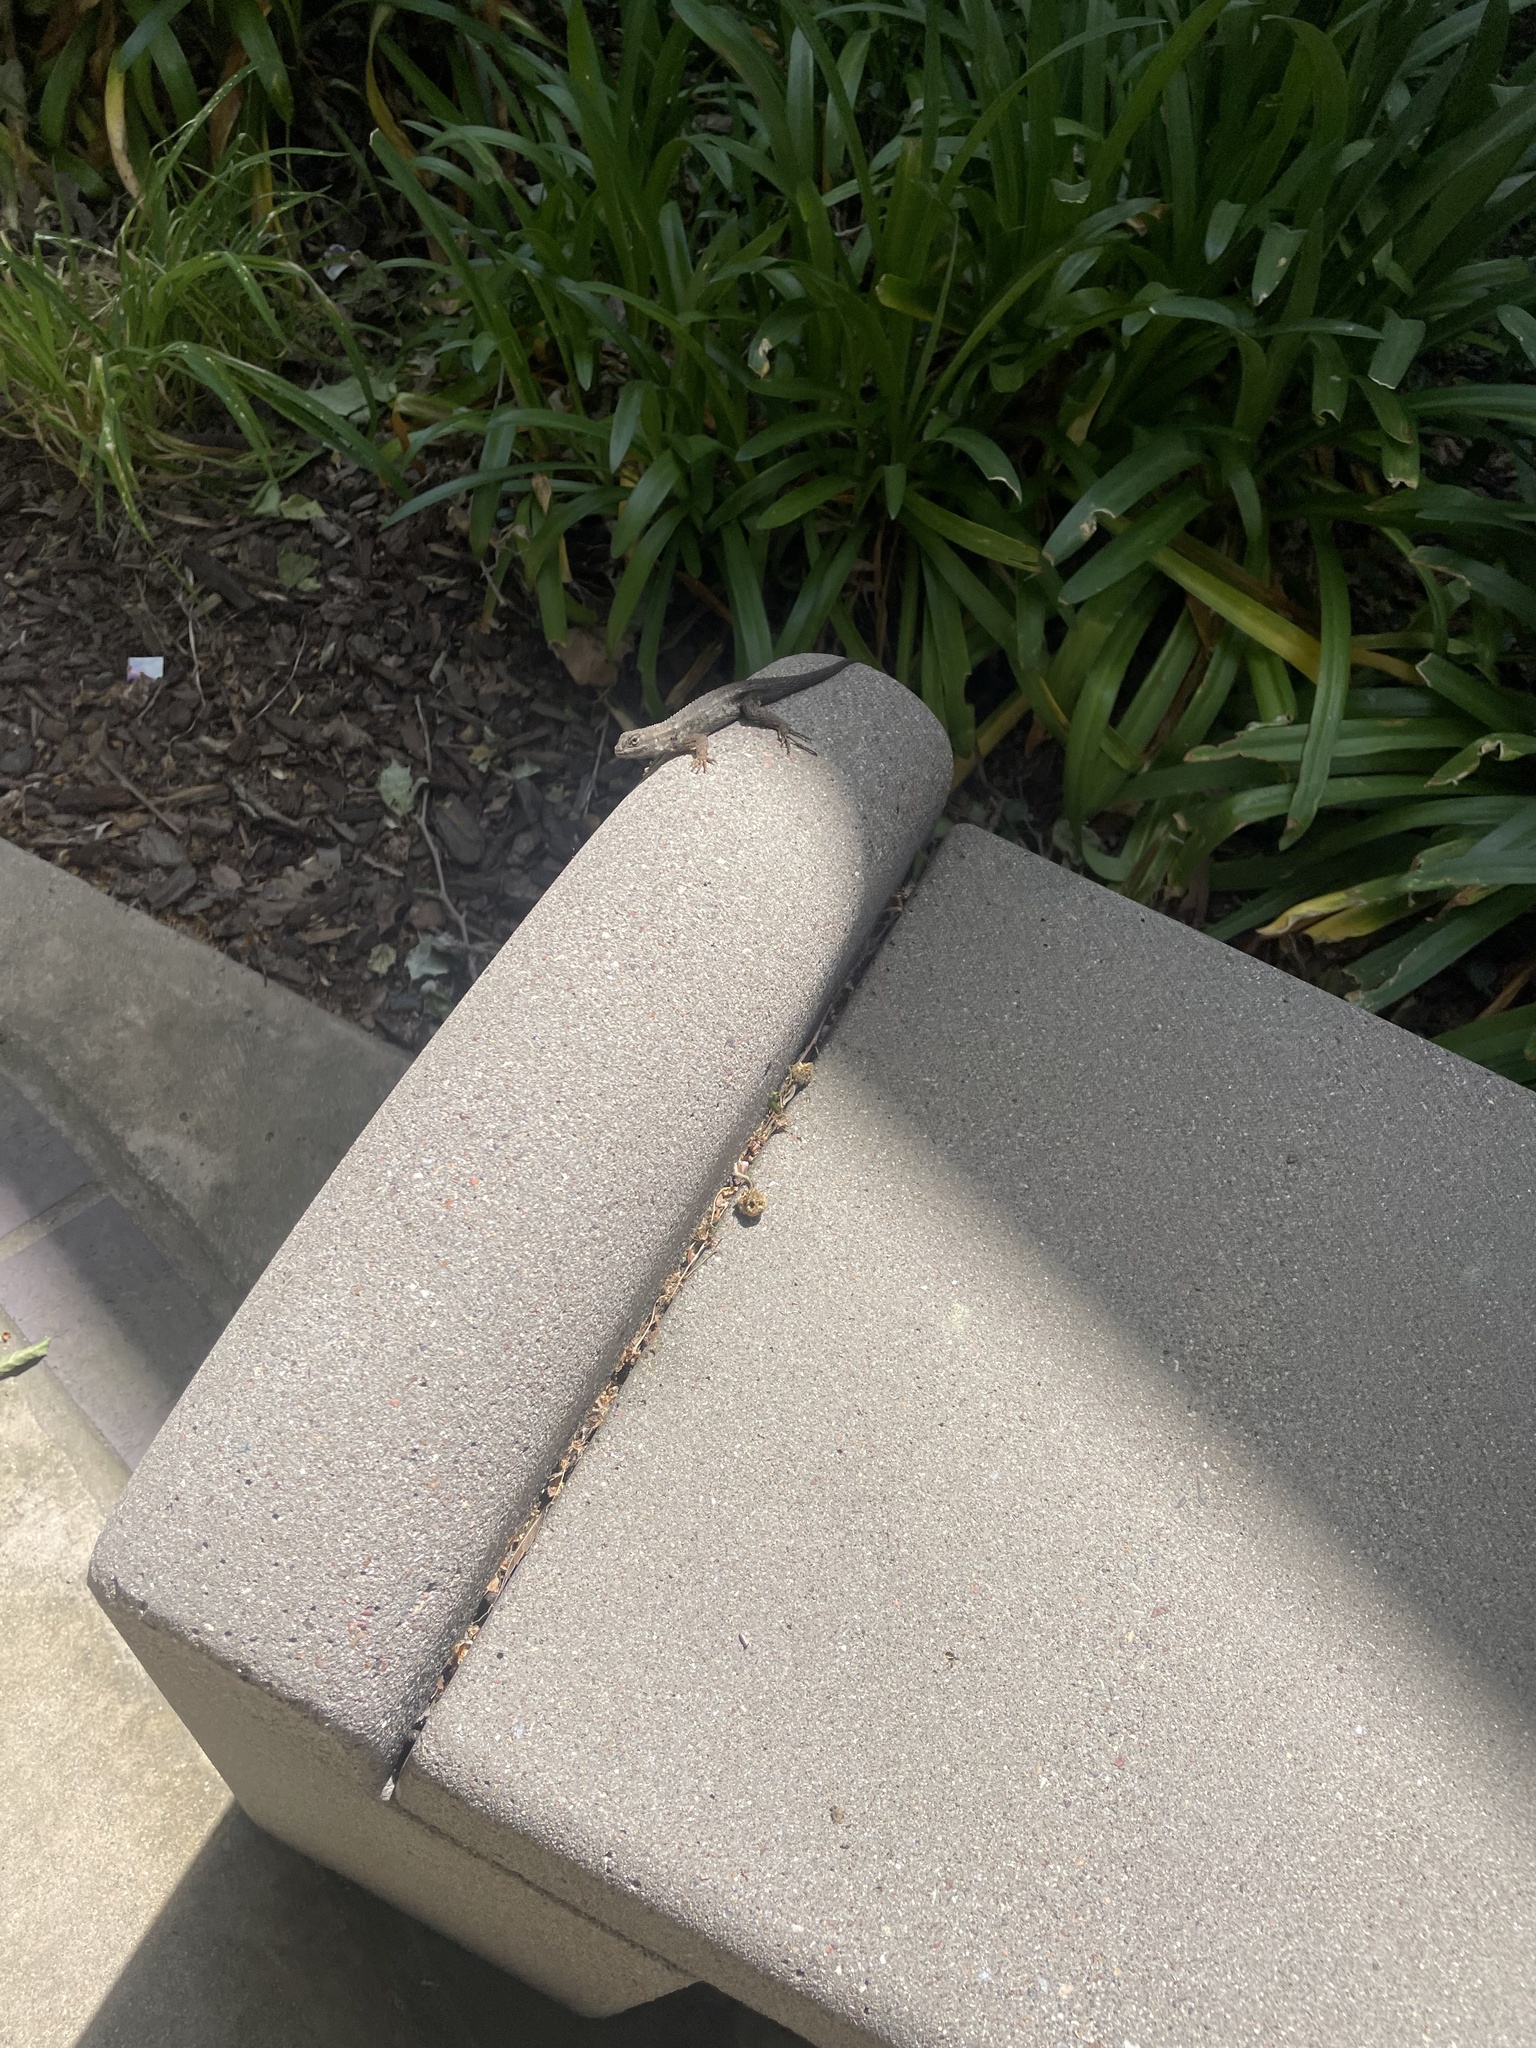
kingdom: Animalia
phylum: Chordata
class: Squamata
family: Phrynosomatidae
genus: Sceloporus
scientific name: Sceloporus occidentalis
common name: Western fence lizard
